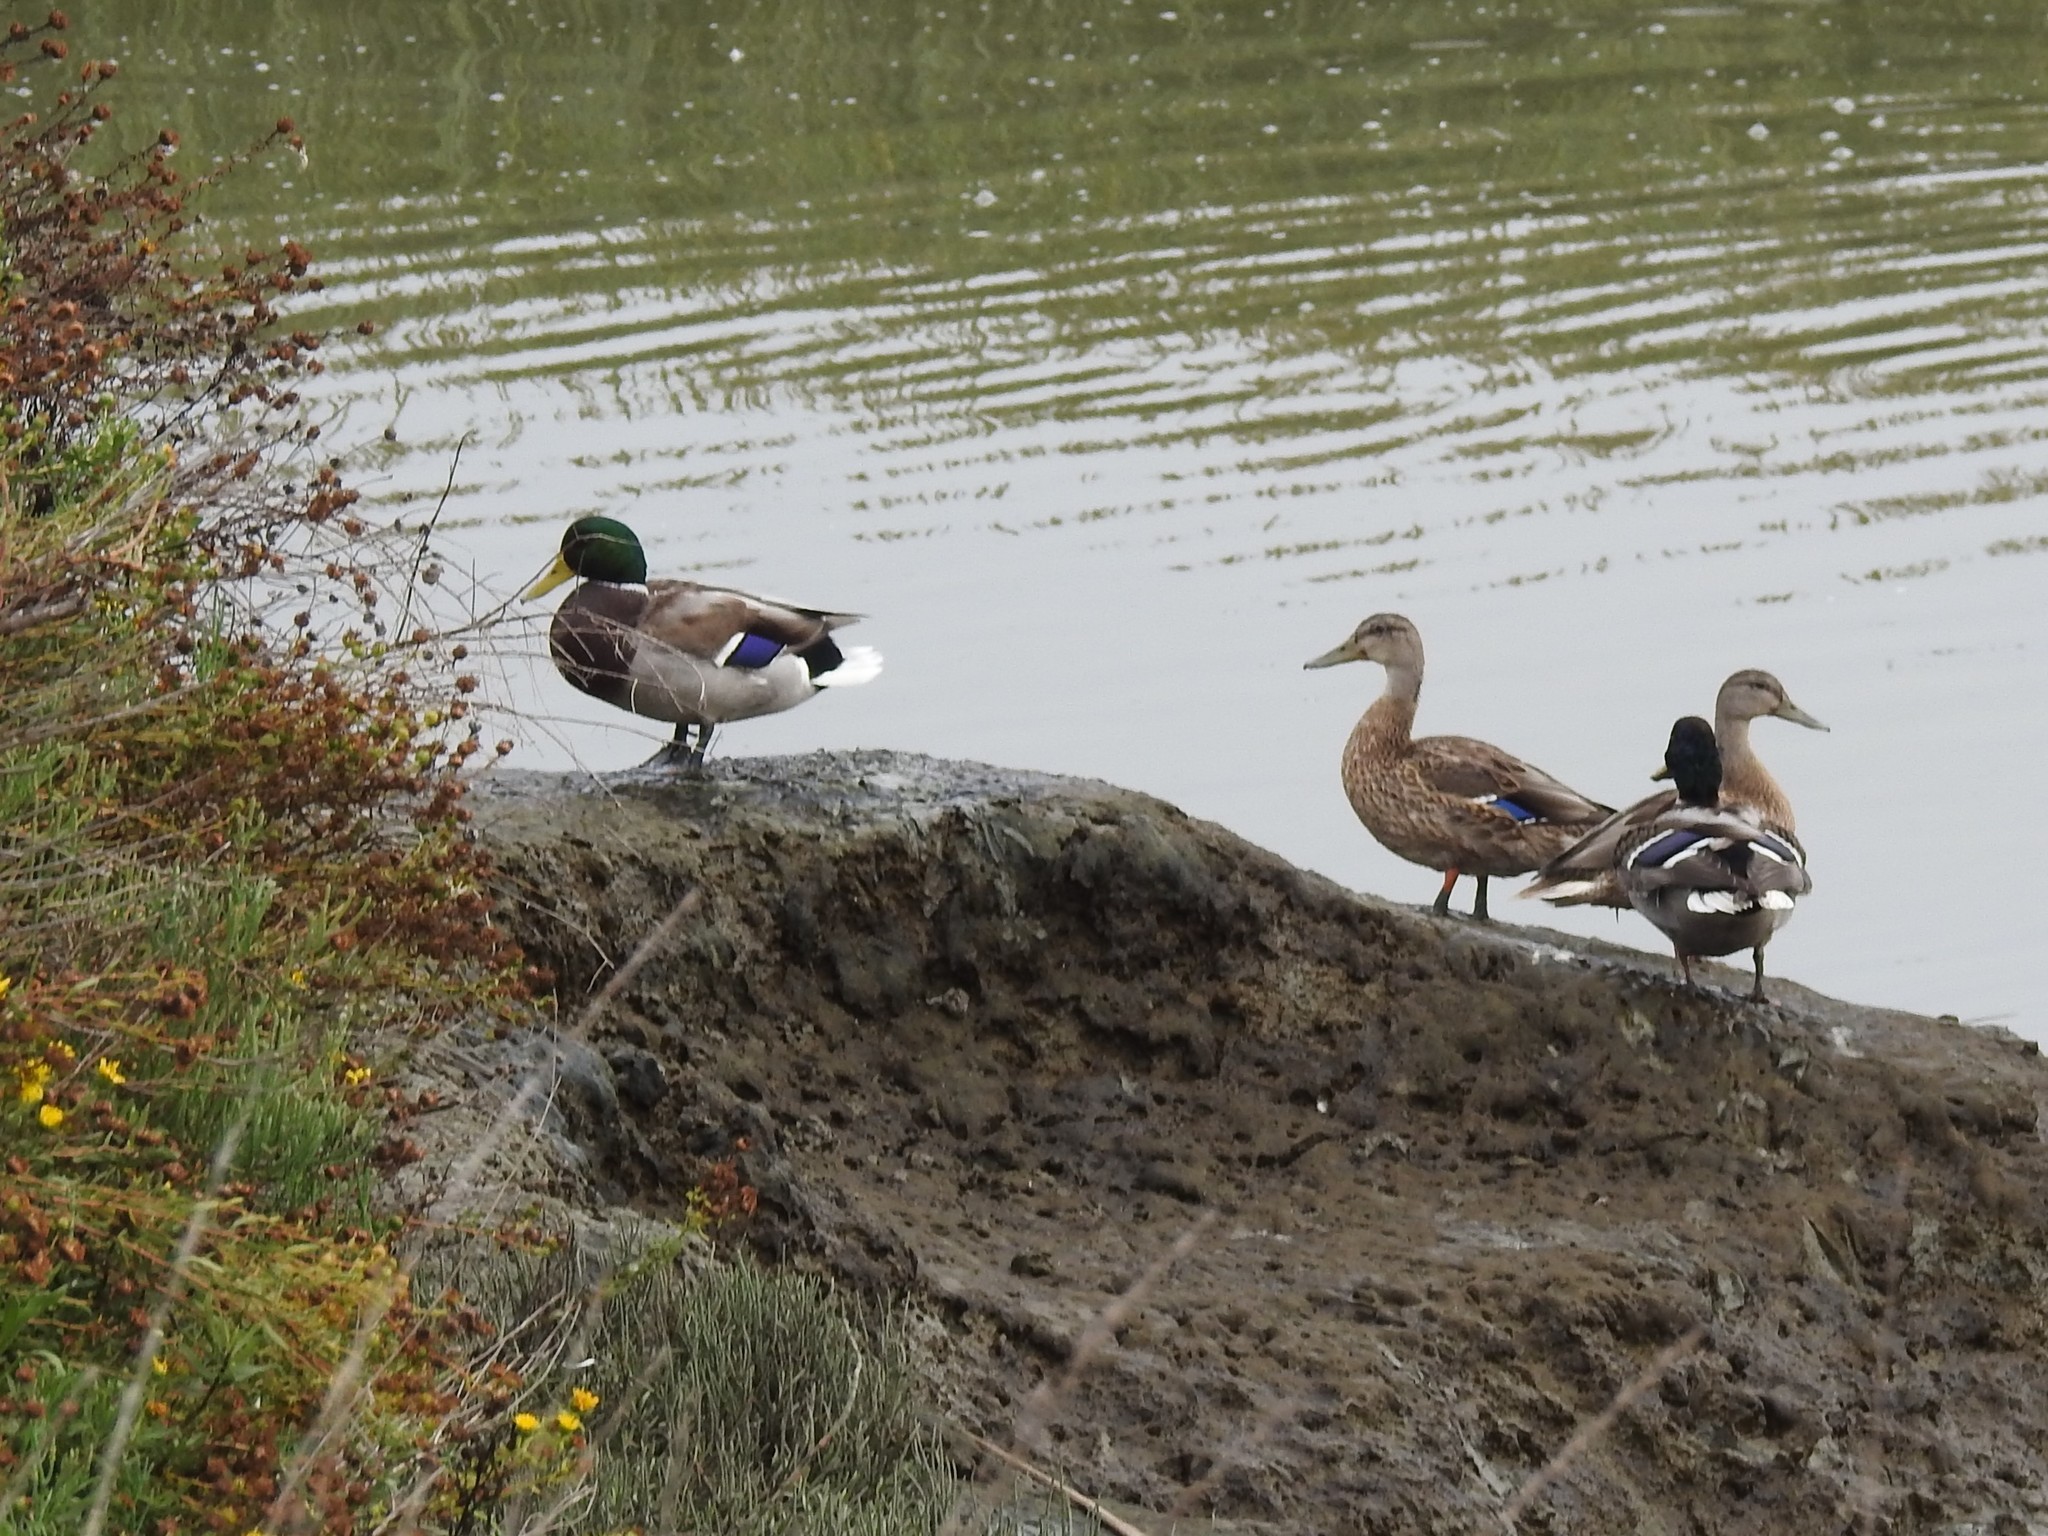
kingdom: Animalia
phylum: Chordata
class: Aves
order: Anseriformes
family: Anatidae
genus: Anas
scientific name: Anas platyrhynchos
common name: Mallard
